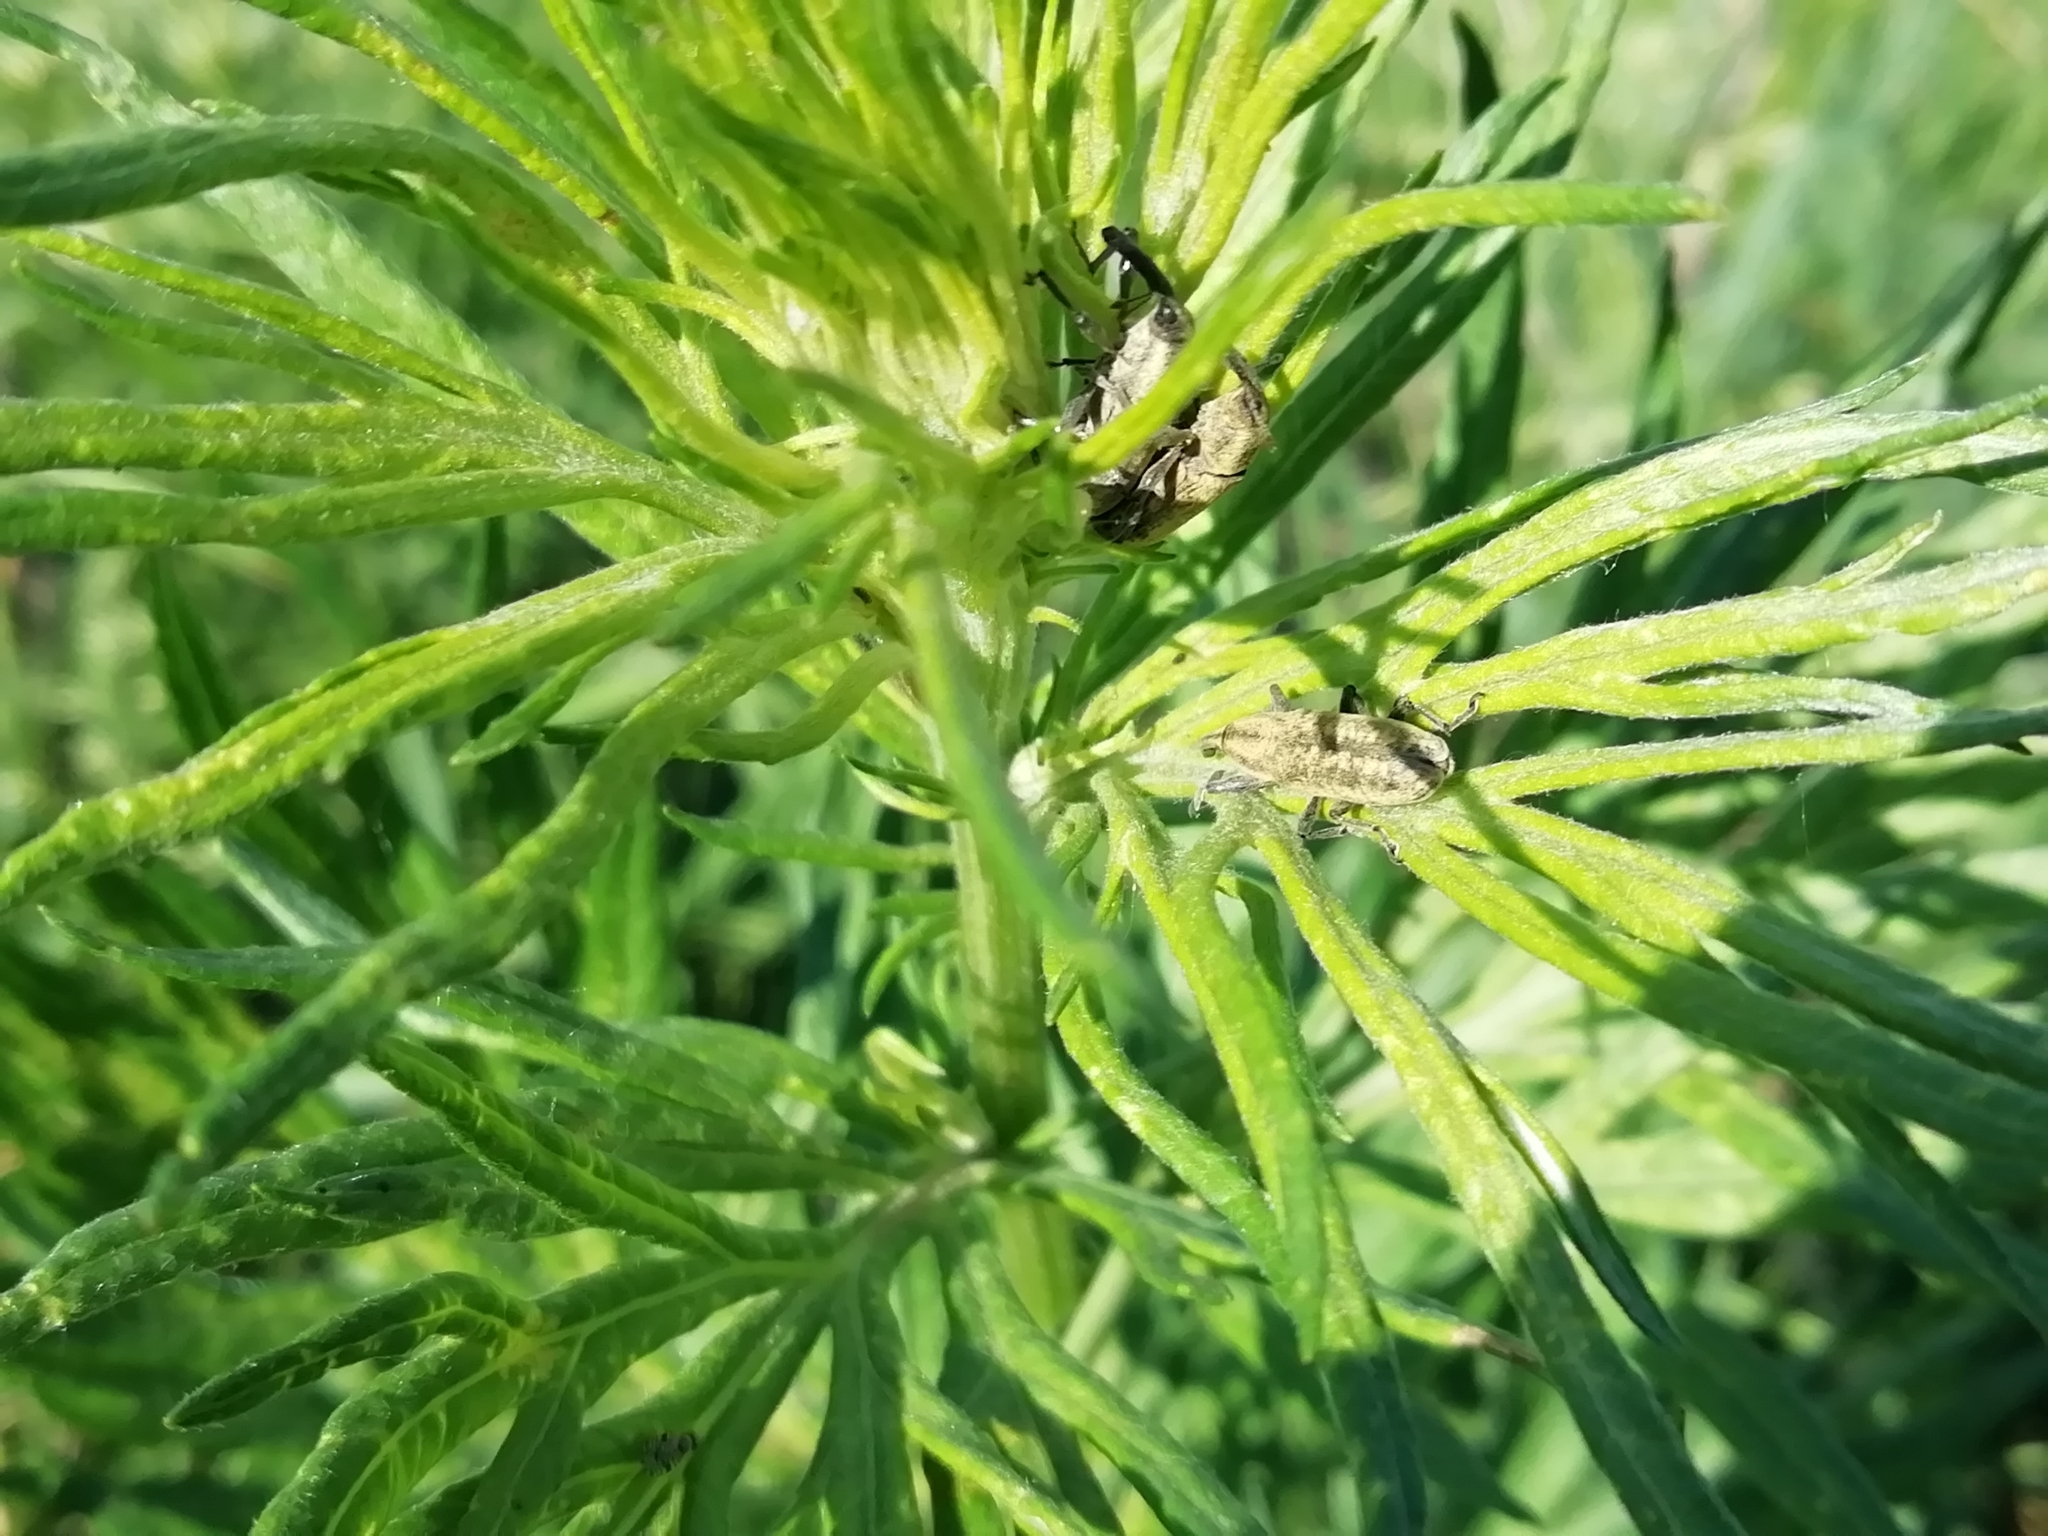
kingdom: Animalia
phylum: Arthropoda
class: Insecta
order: Coleoptera
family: Curculionidae
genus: Lixus
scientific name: Lixus fasciculatus
